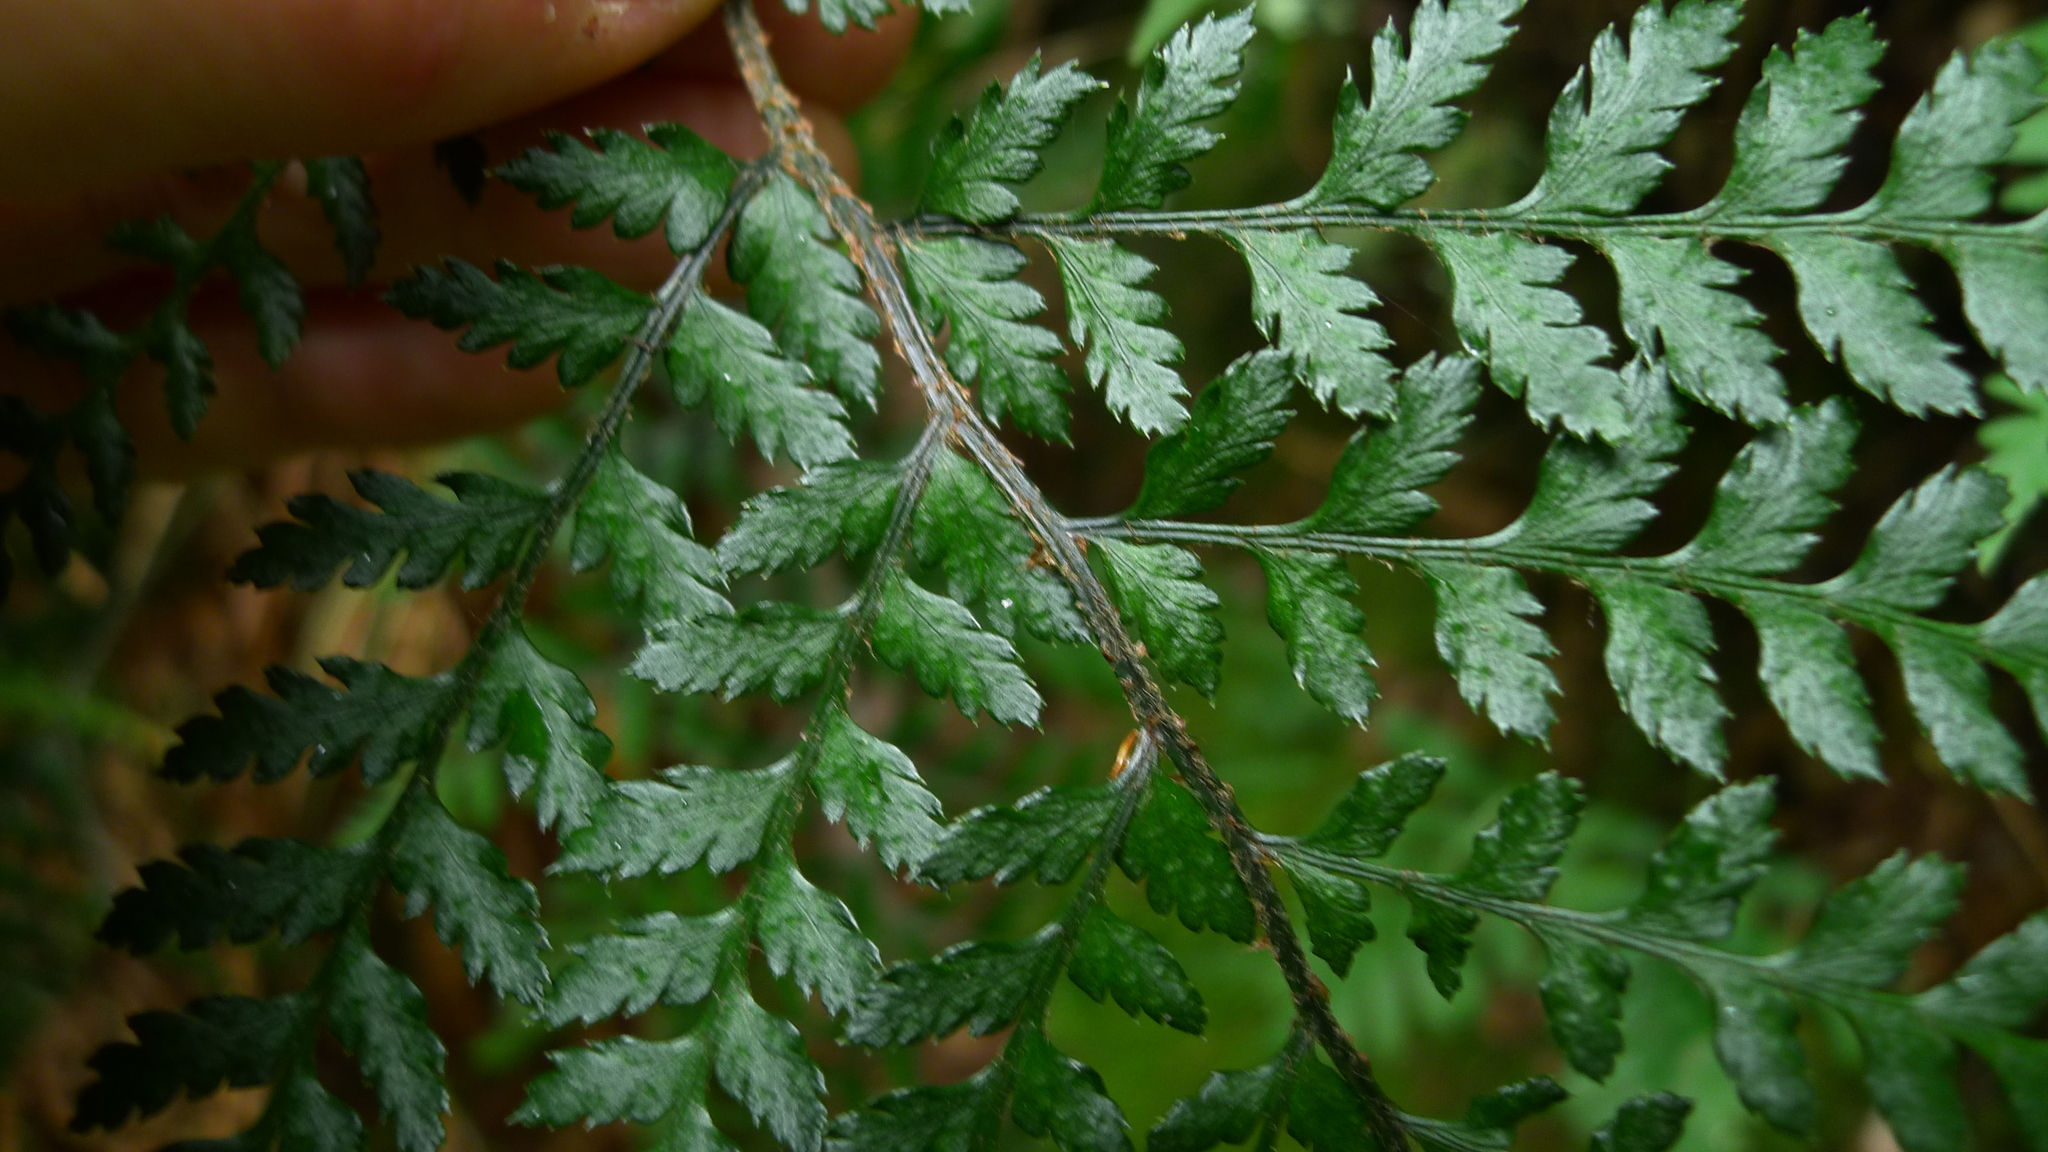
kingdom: Plantae
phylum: Tracheophyta
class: Polypodiopsida
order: Polypodiales
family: Dryopteridaceae
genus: Polystichum
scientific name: Polystichum oculatum
